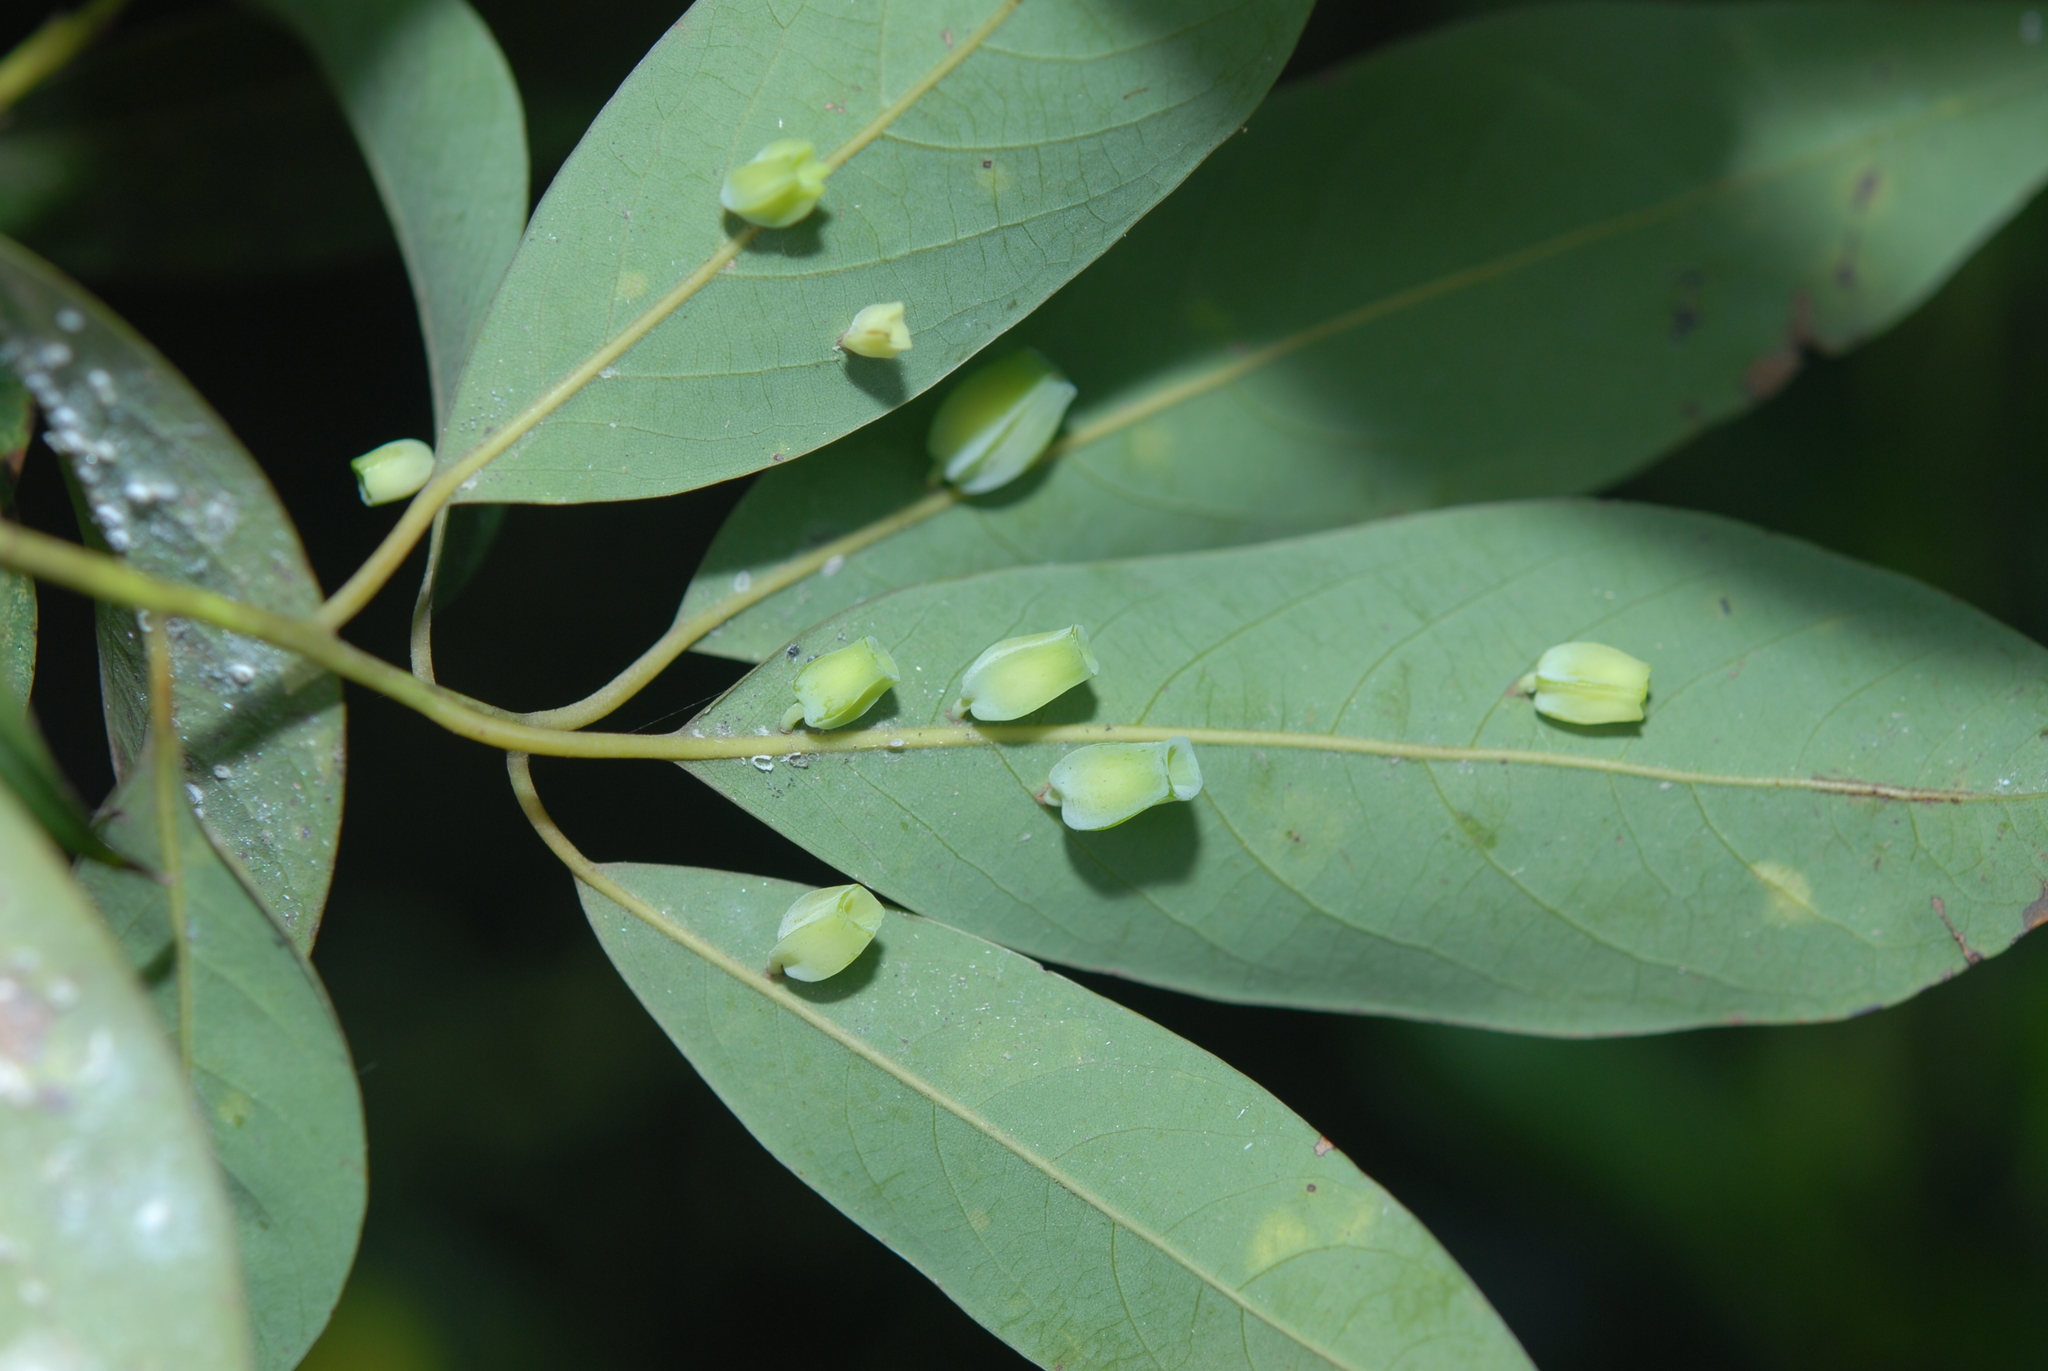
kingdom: Animalia
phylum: Arthropoda
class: Insecta
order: Diptera
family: Cecidomyiidae
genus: Daphnephila
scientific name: Daphnephila urnicola
